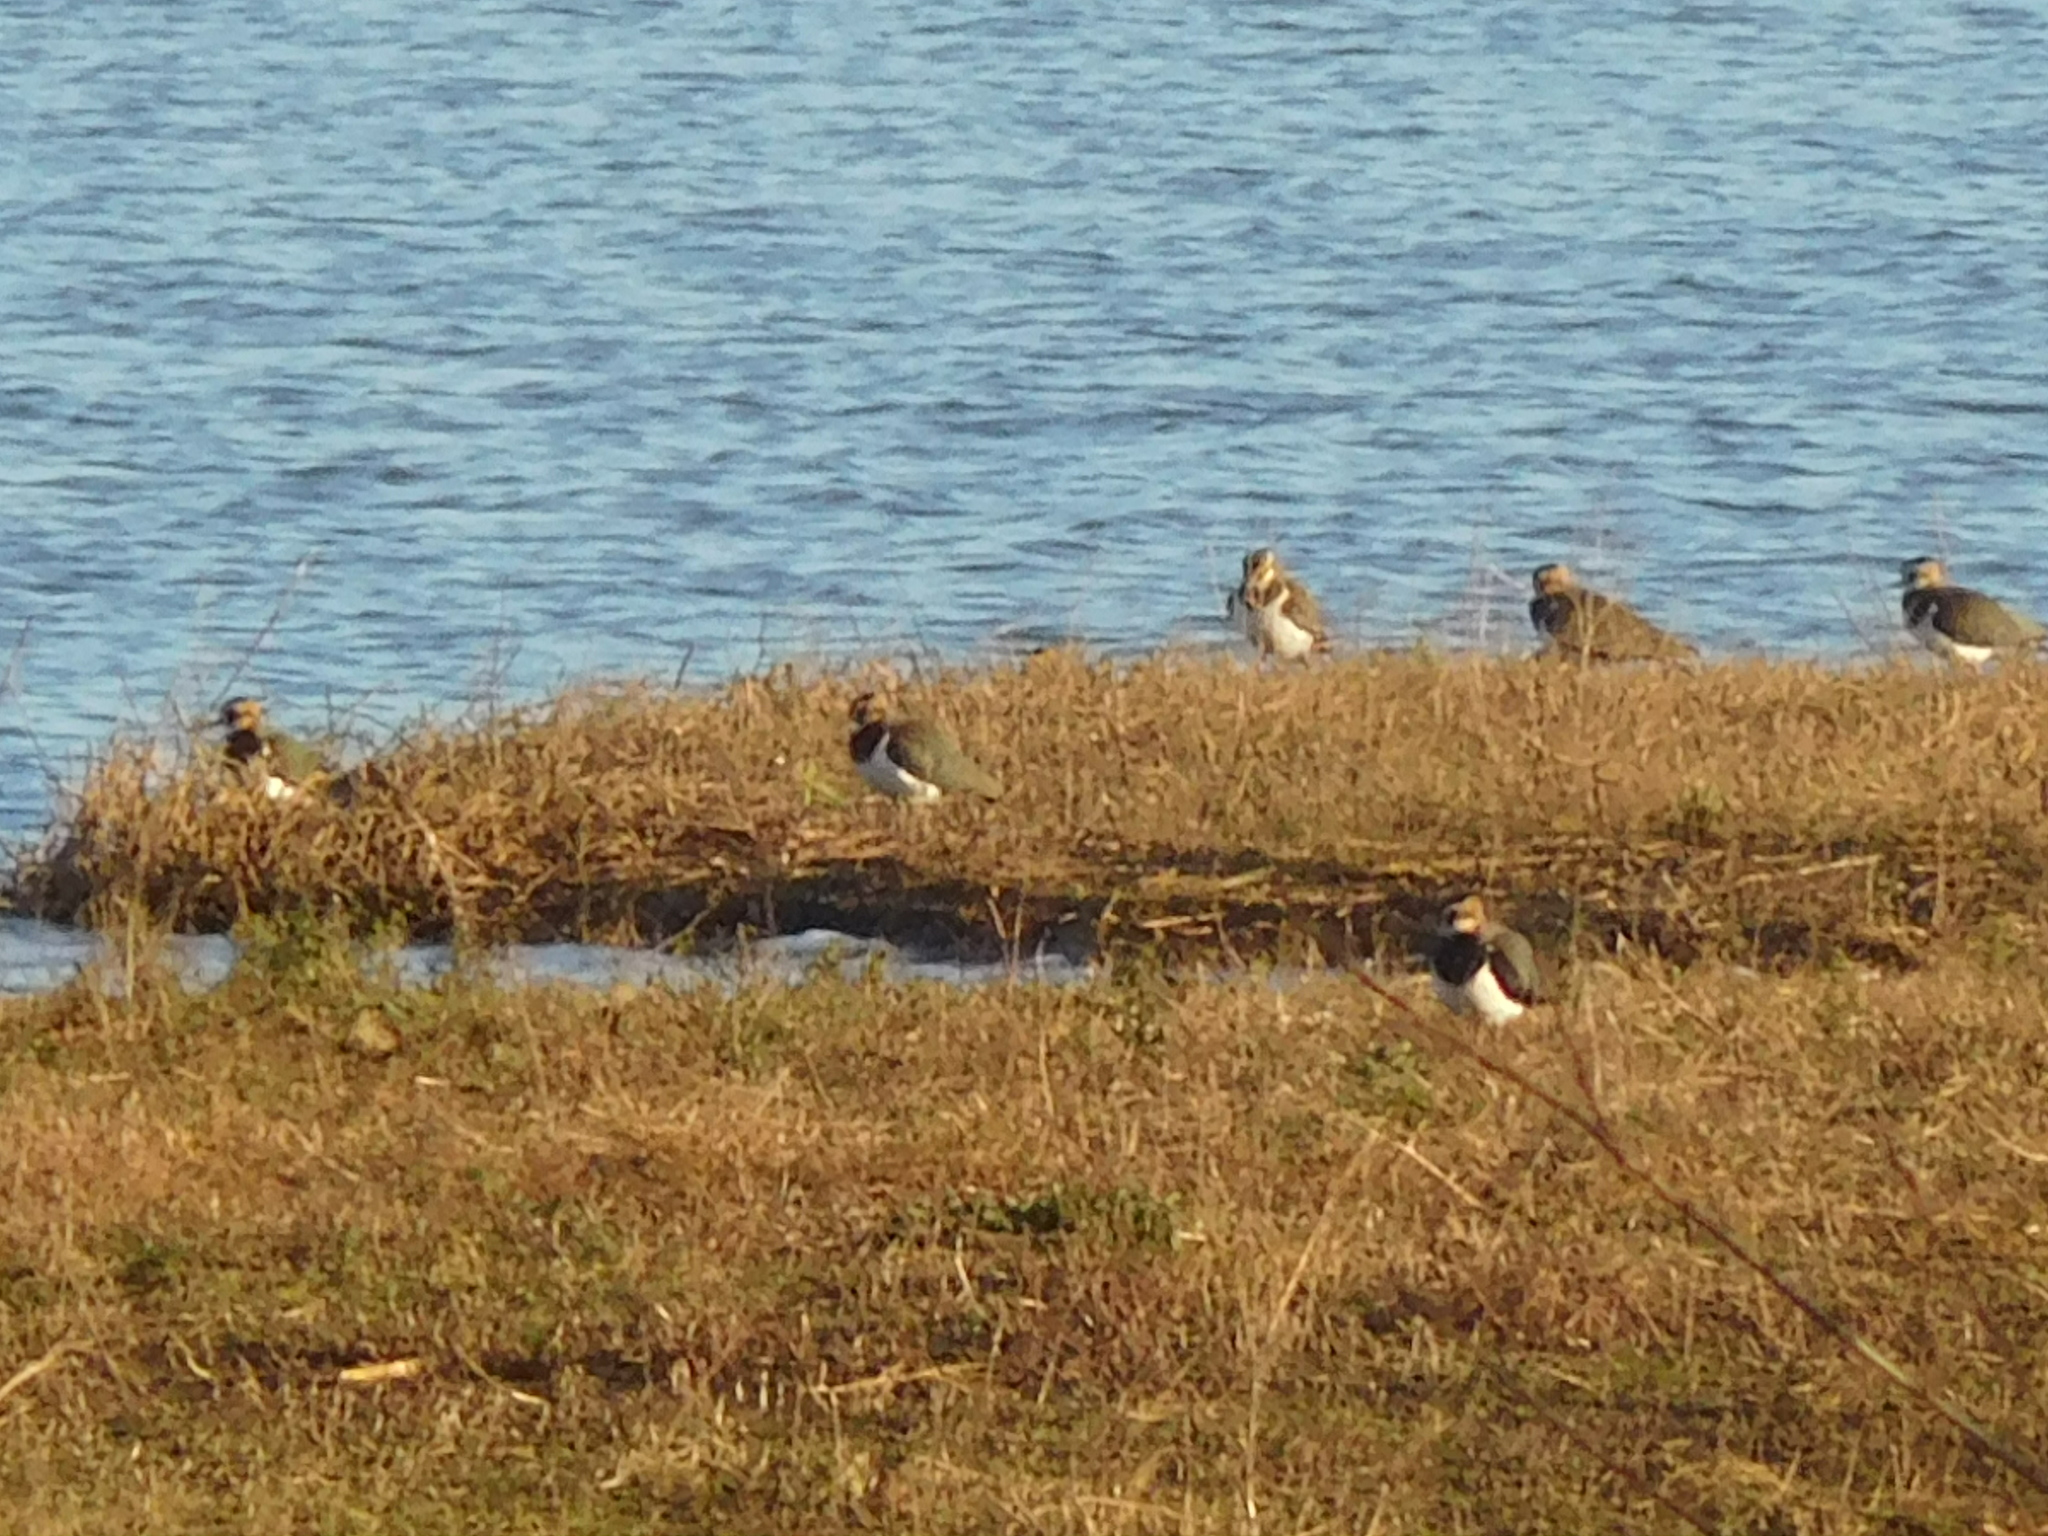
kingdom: Animalia
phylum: Chordata
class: Aves
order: Charadriiformes
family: Charadriidae
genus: Vanellus
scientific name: Vanellus vanellus
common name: Northern lapwing
